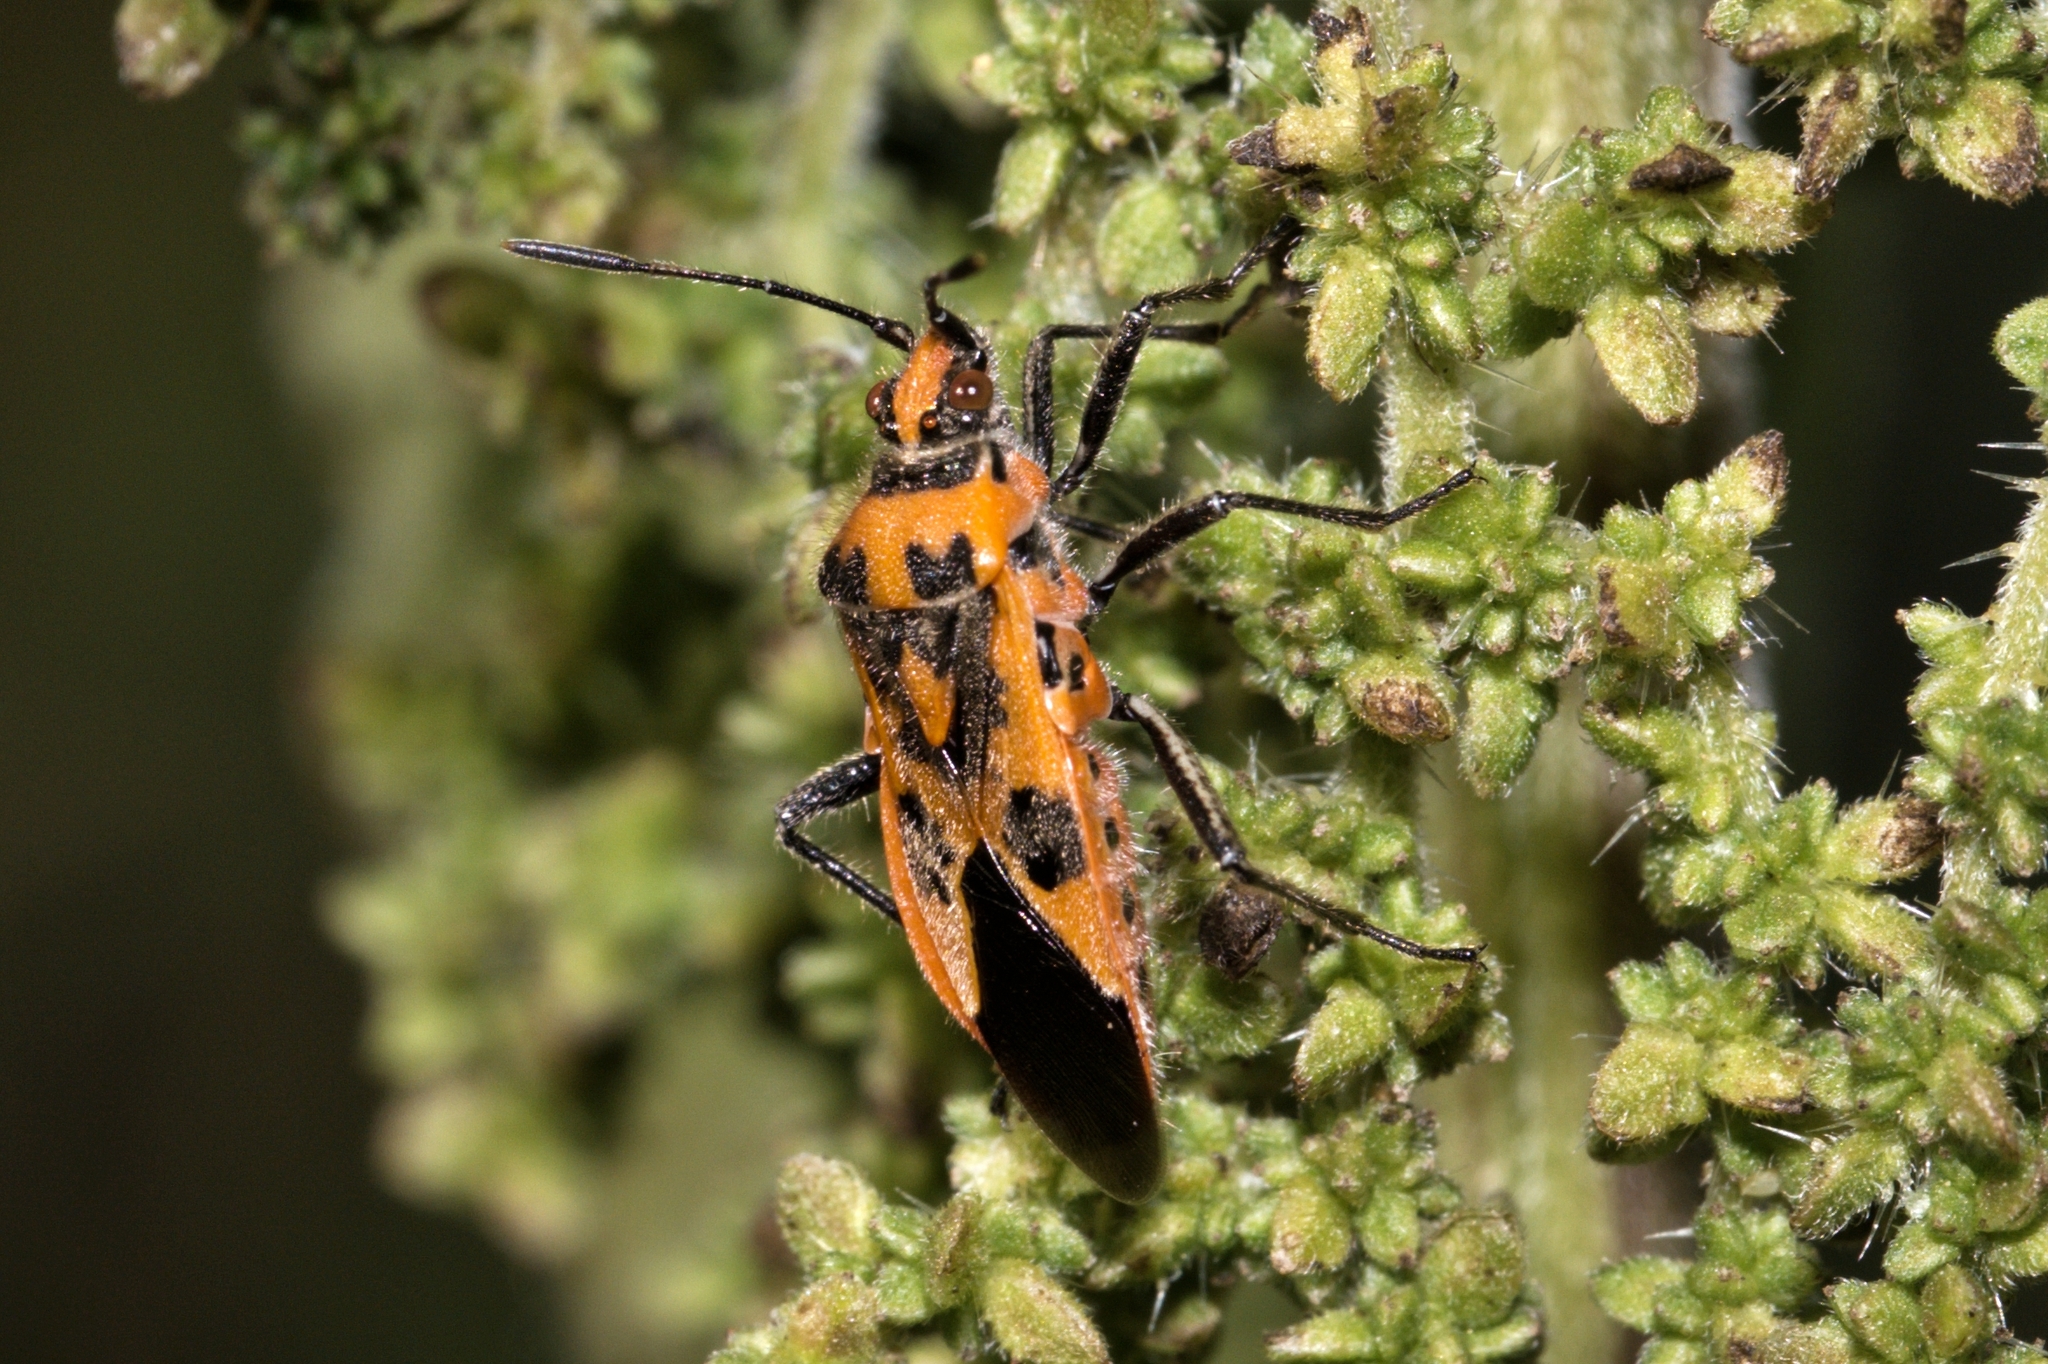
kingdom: Animalia
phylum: Arthropoda
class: Insecta
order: Hemiptera
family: Rhopalidae
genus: Corizus
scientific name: Corizus hyoscyami
